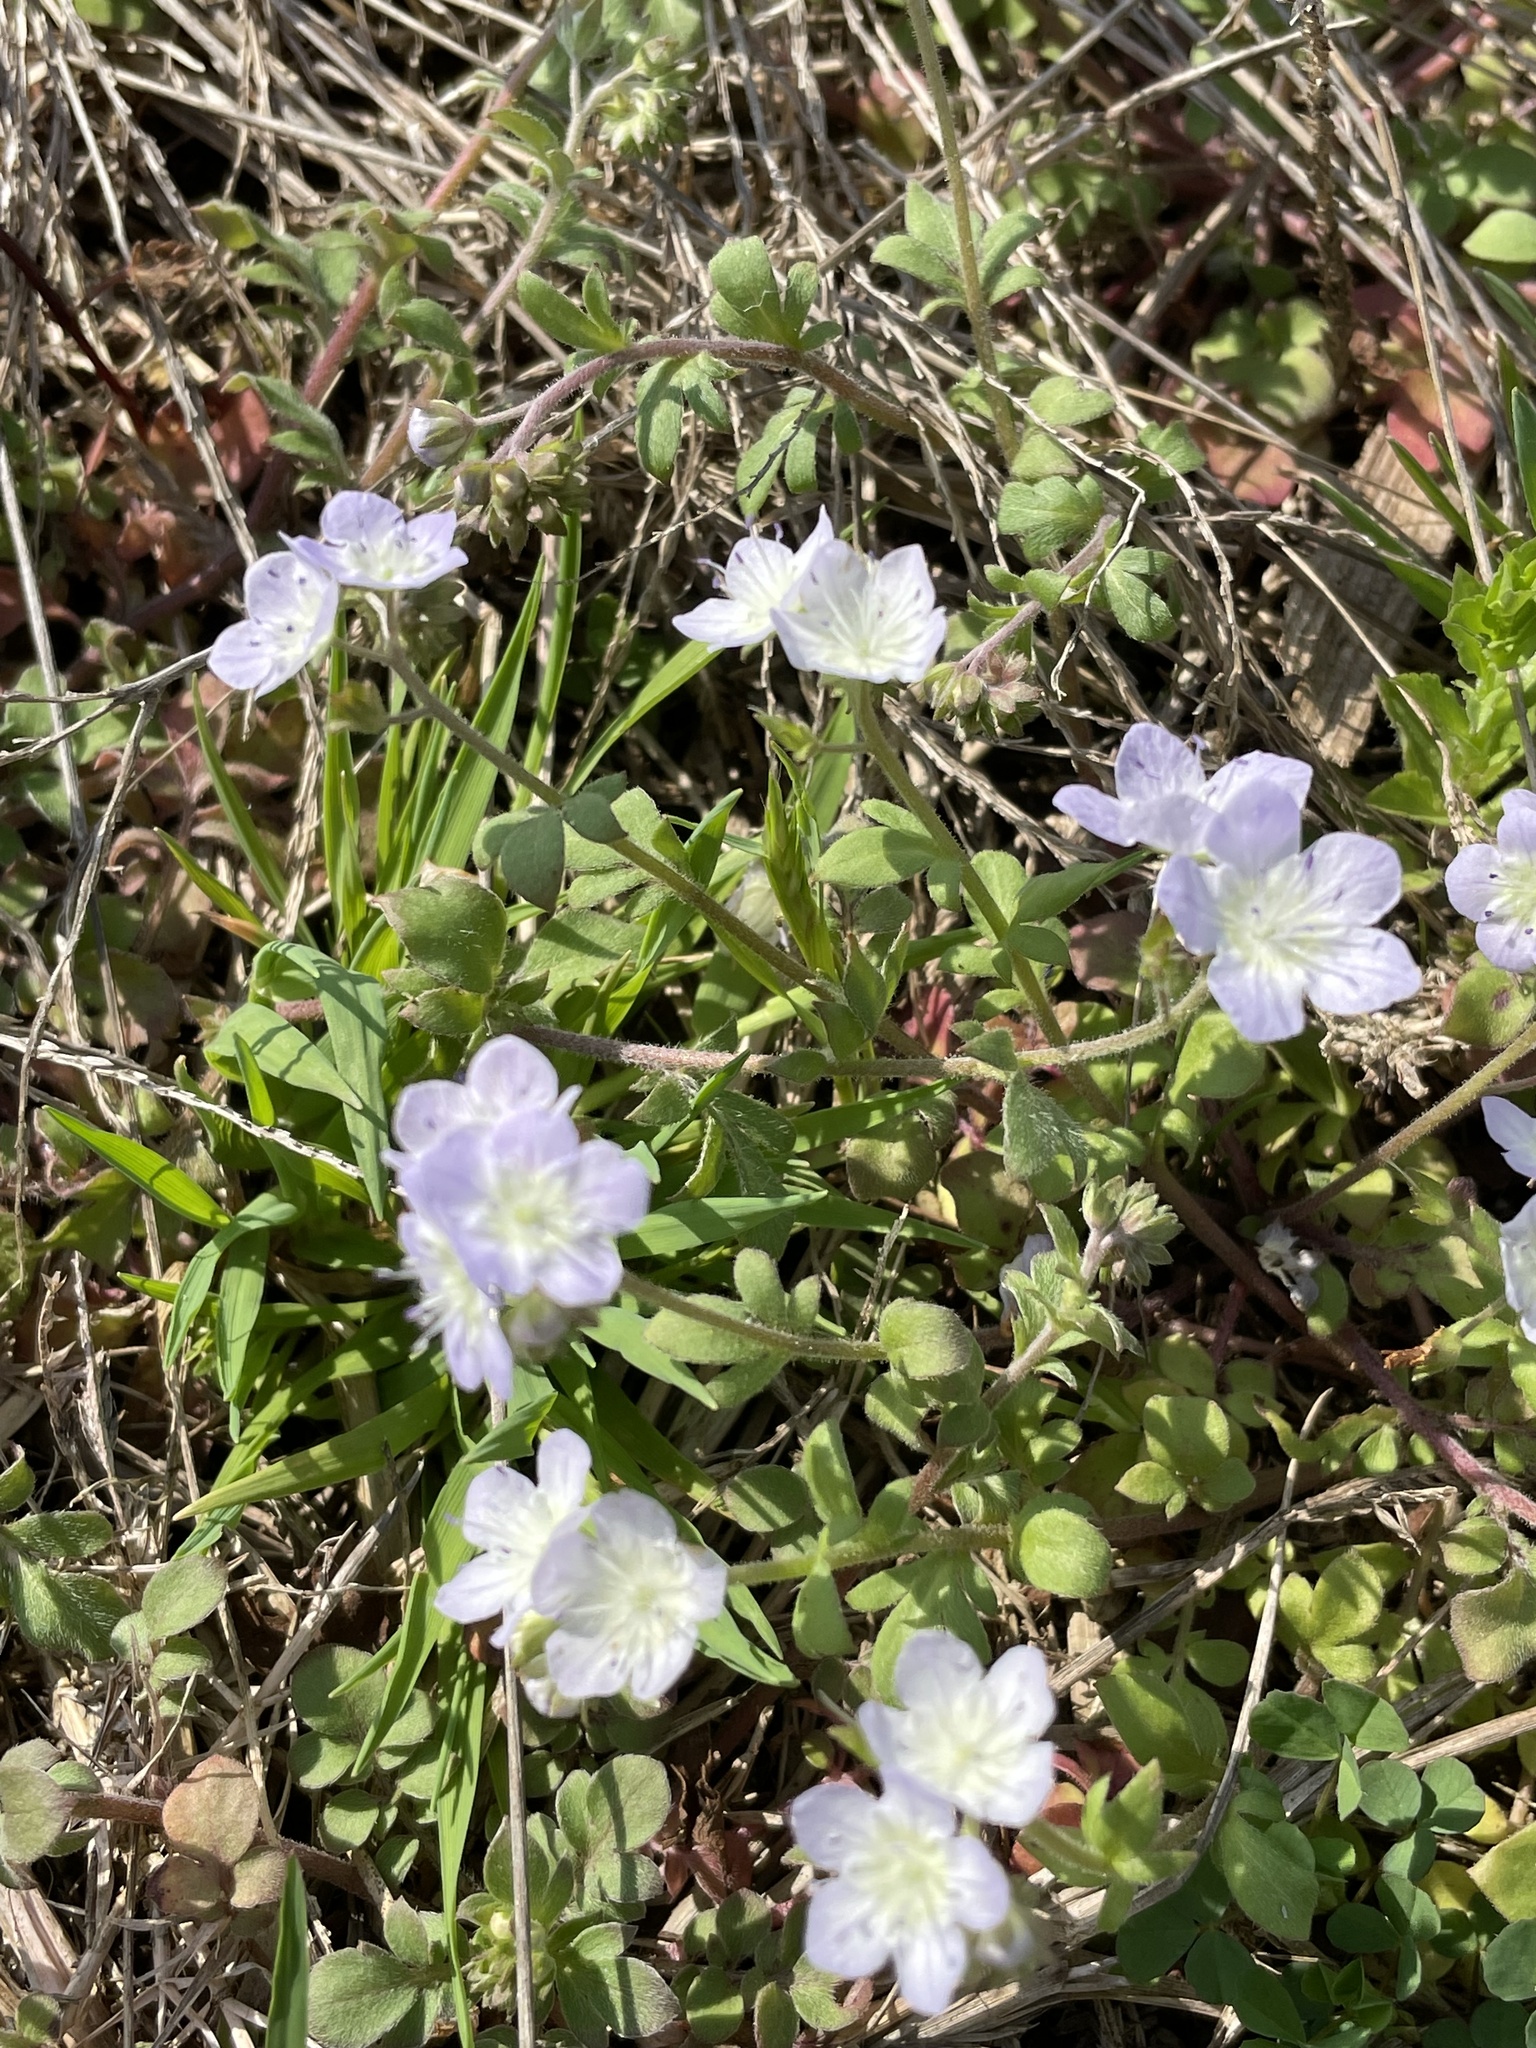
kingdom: Plantae
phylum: Tracheophyta
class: Magnoliopsida
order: Boraginales
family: Hydrophyllaceae
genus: Phacelia
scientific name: Phacelia dubia
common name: Appalachian phacelia
